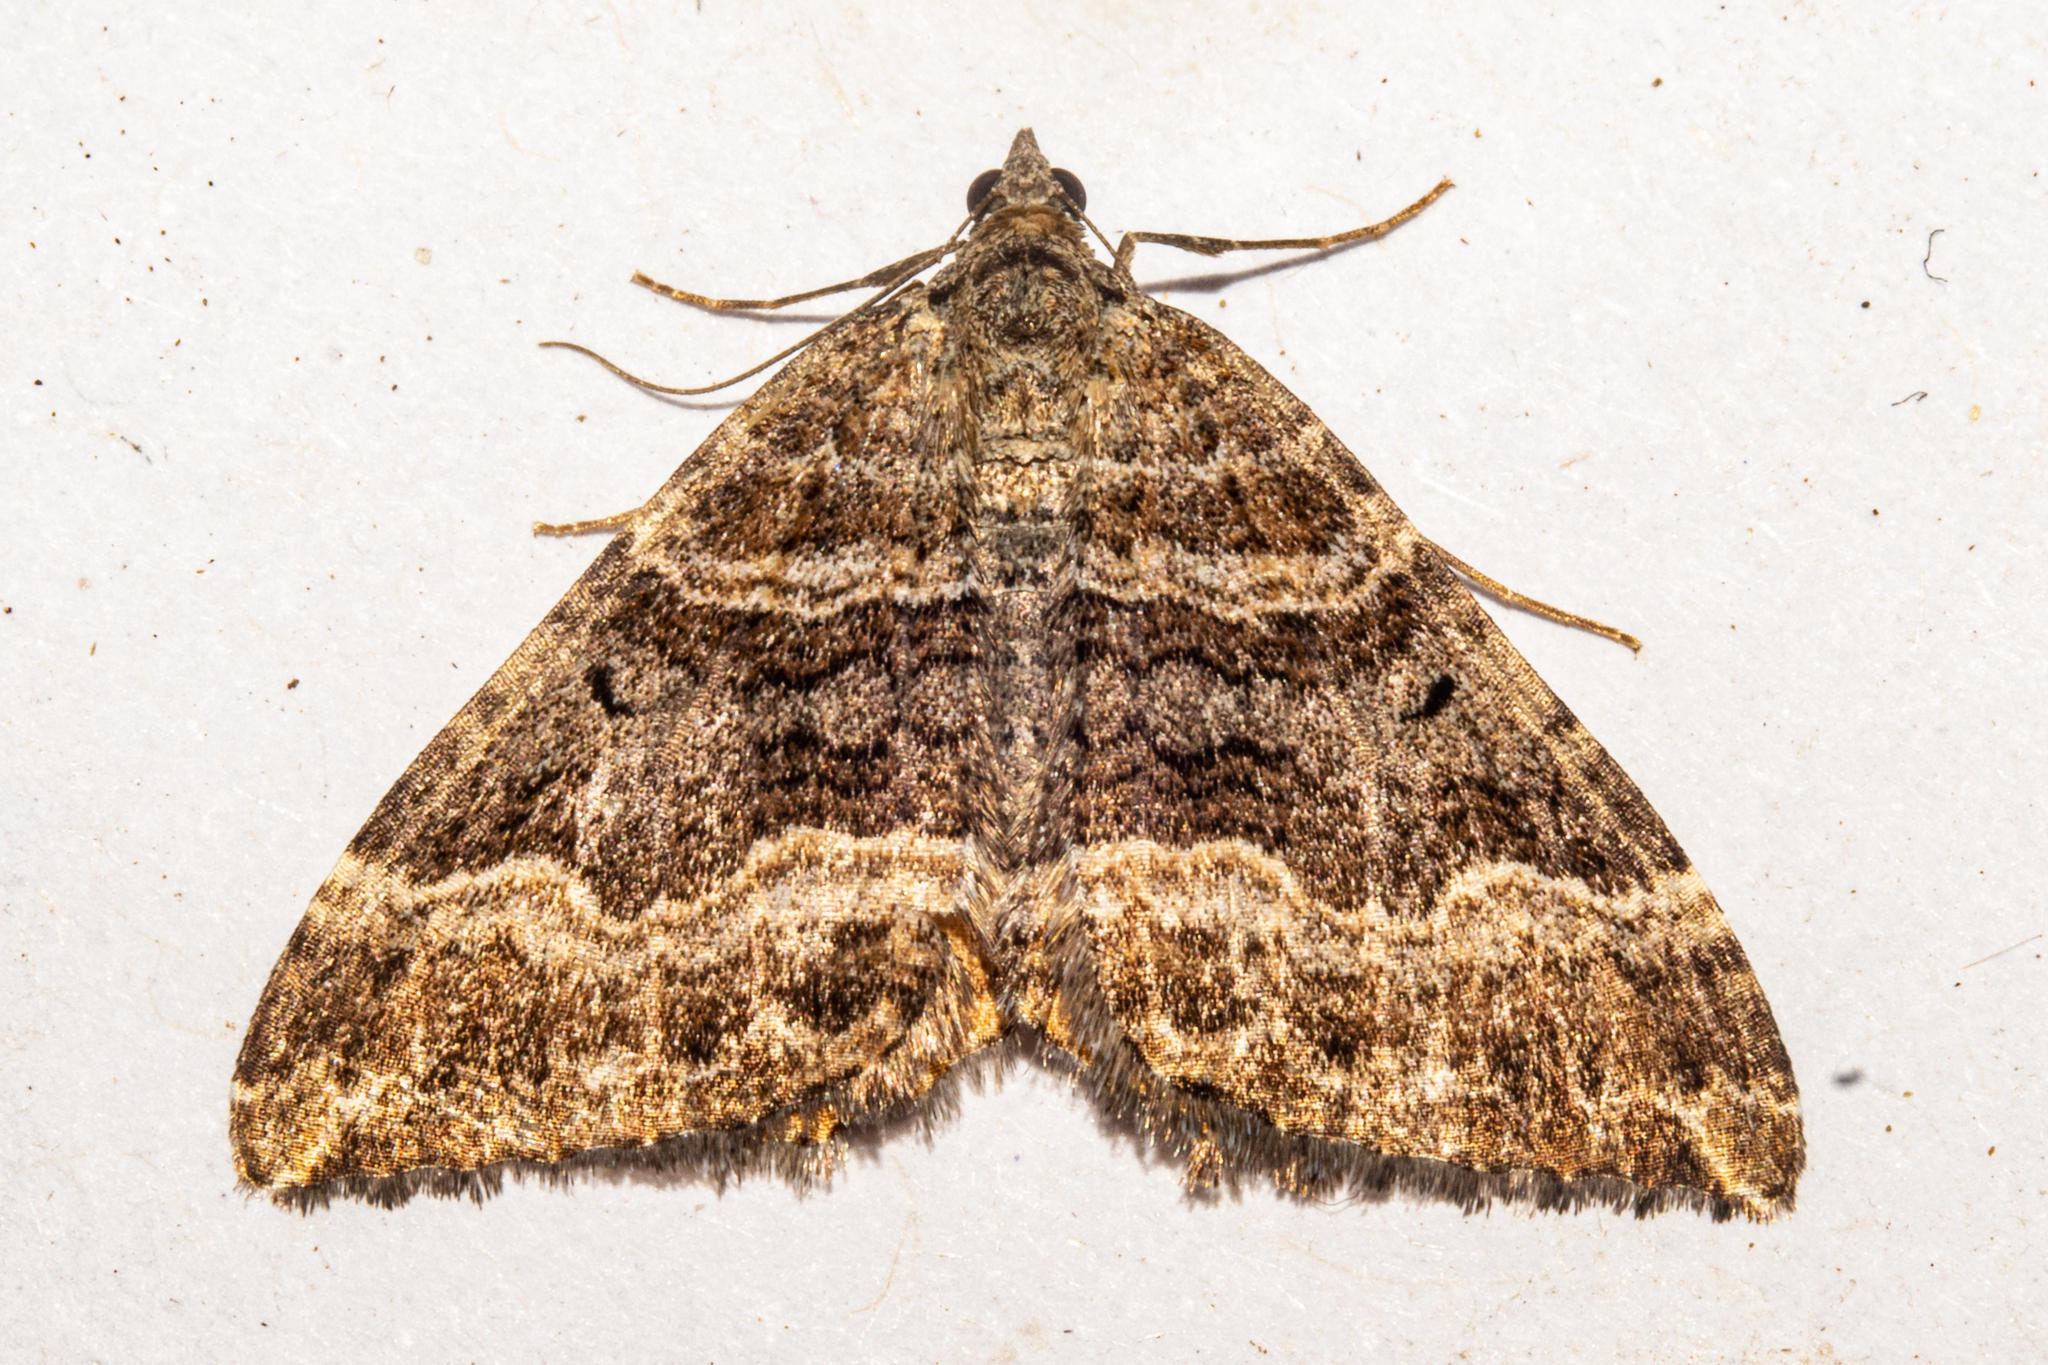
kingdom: Animalia
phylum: Arthropoda
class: Insecta
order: Lepidoptera
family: Geometridae
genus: Hydriomena
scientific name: Hydriomena deltoidata
